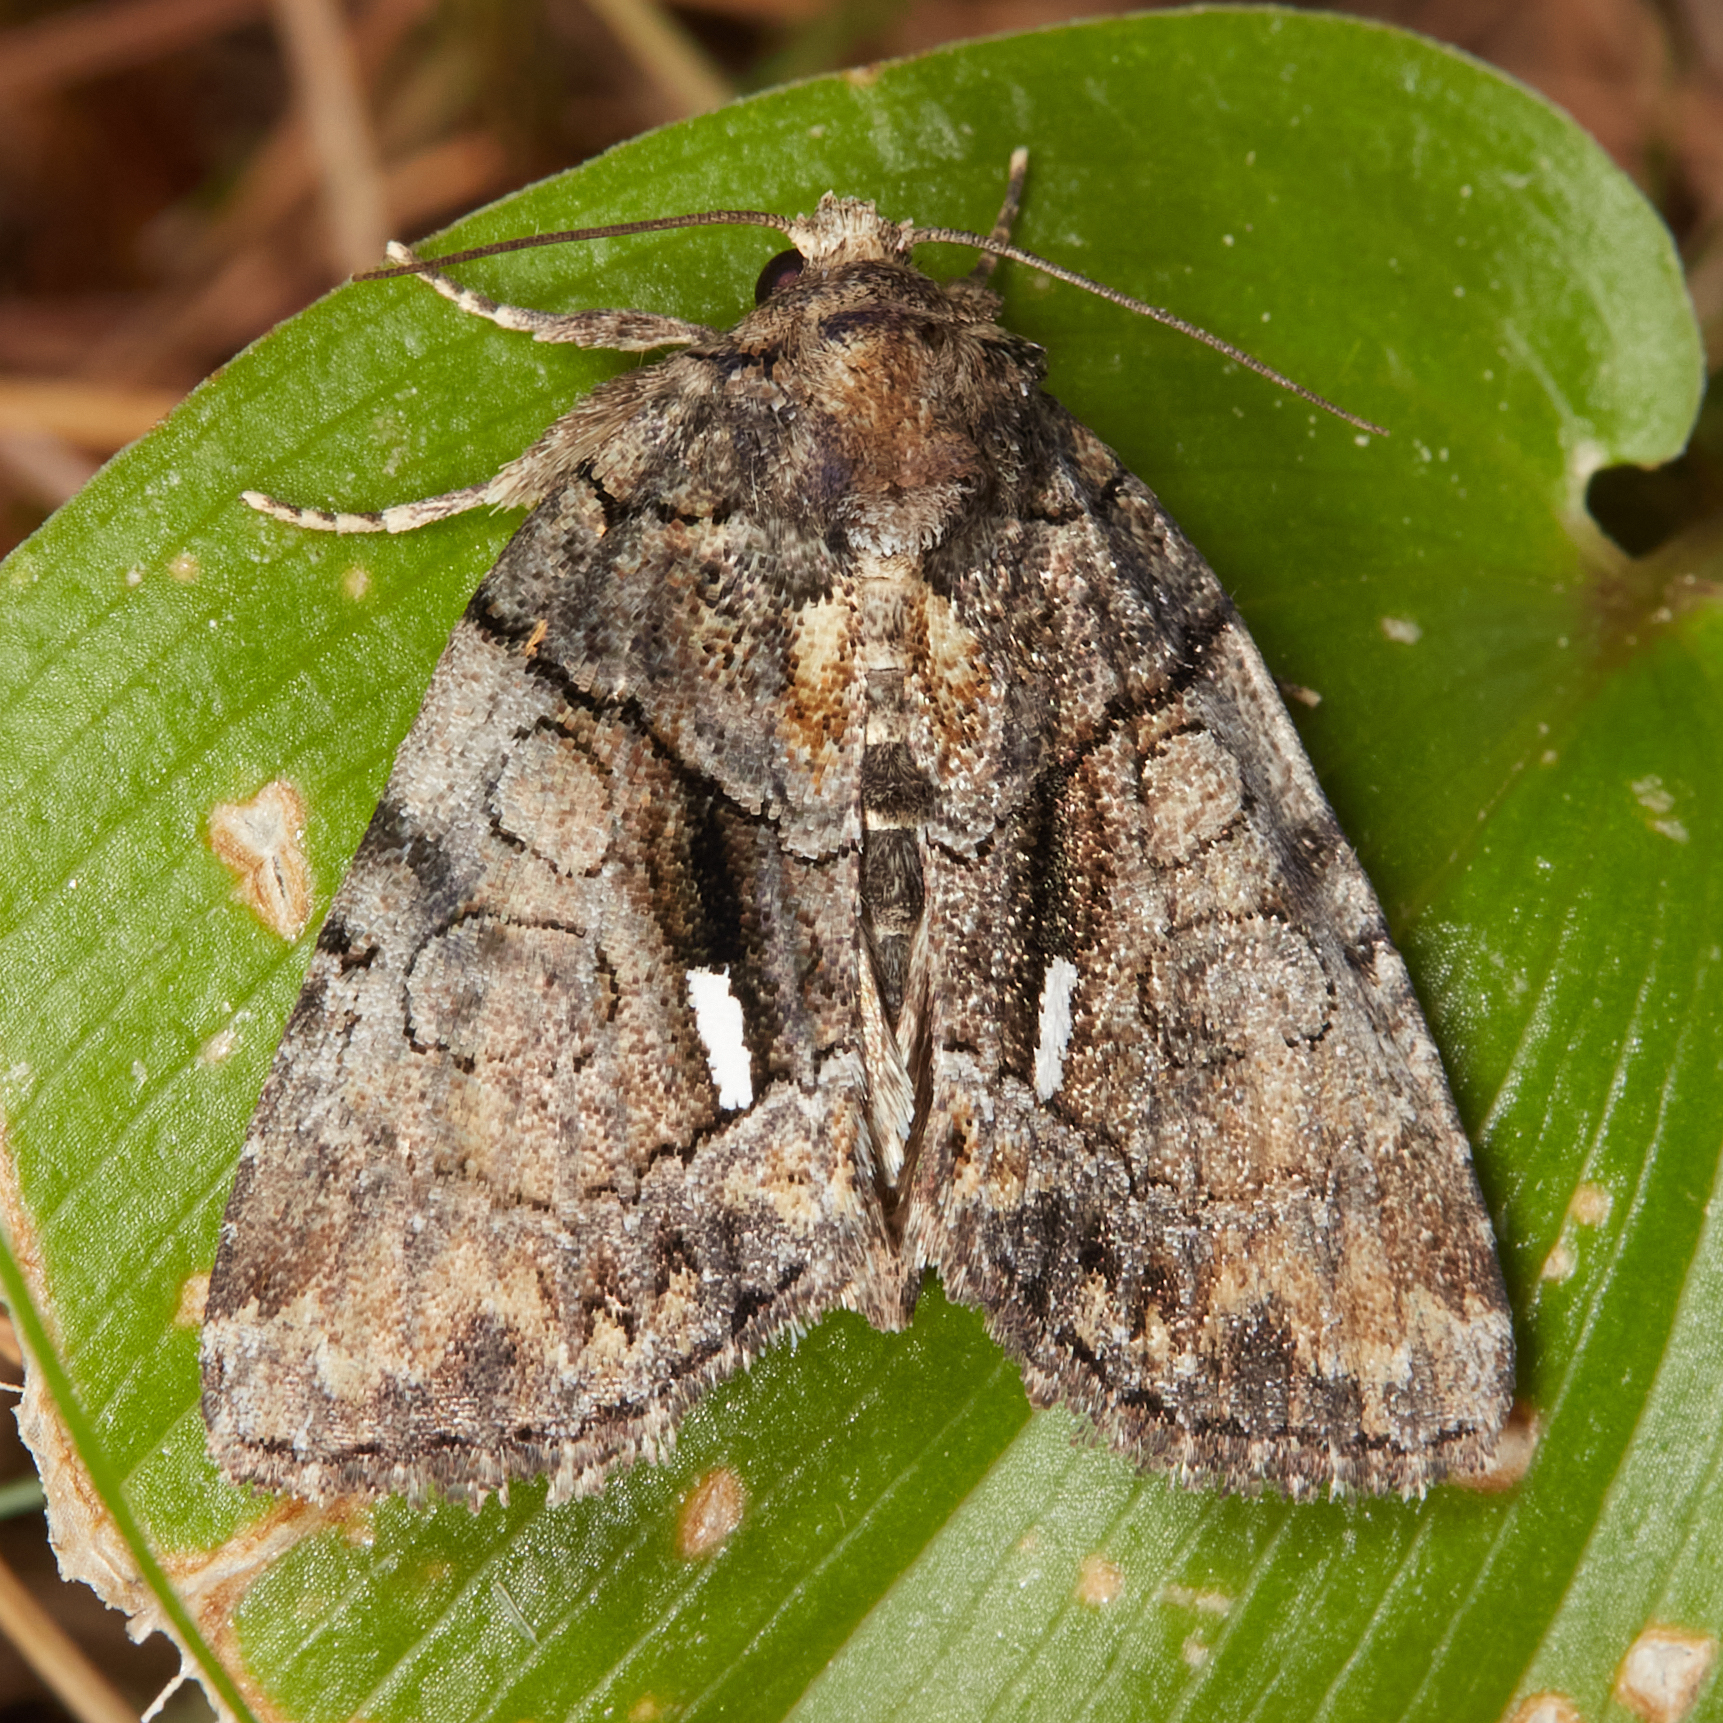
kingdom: Animalia
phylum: Arthropoda
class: Insecta
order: Lepidoptera
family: Noctuidae
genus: Chytonix
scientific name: Chytonix palliatricula
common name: Cloaked marvel
